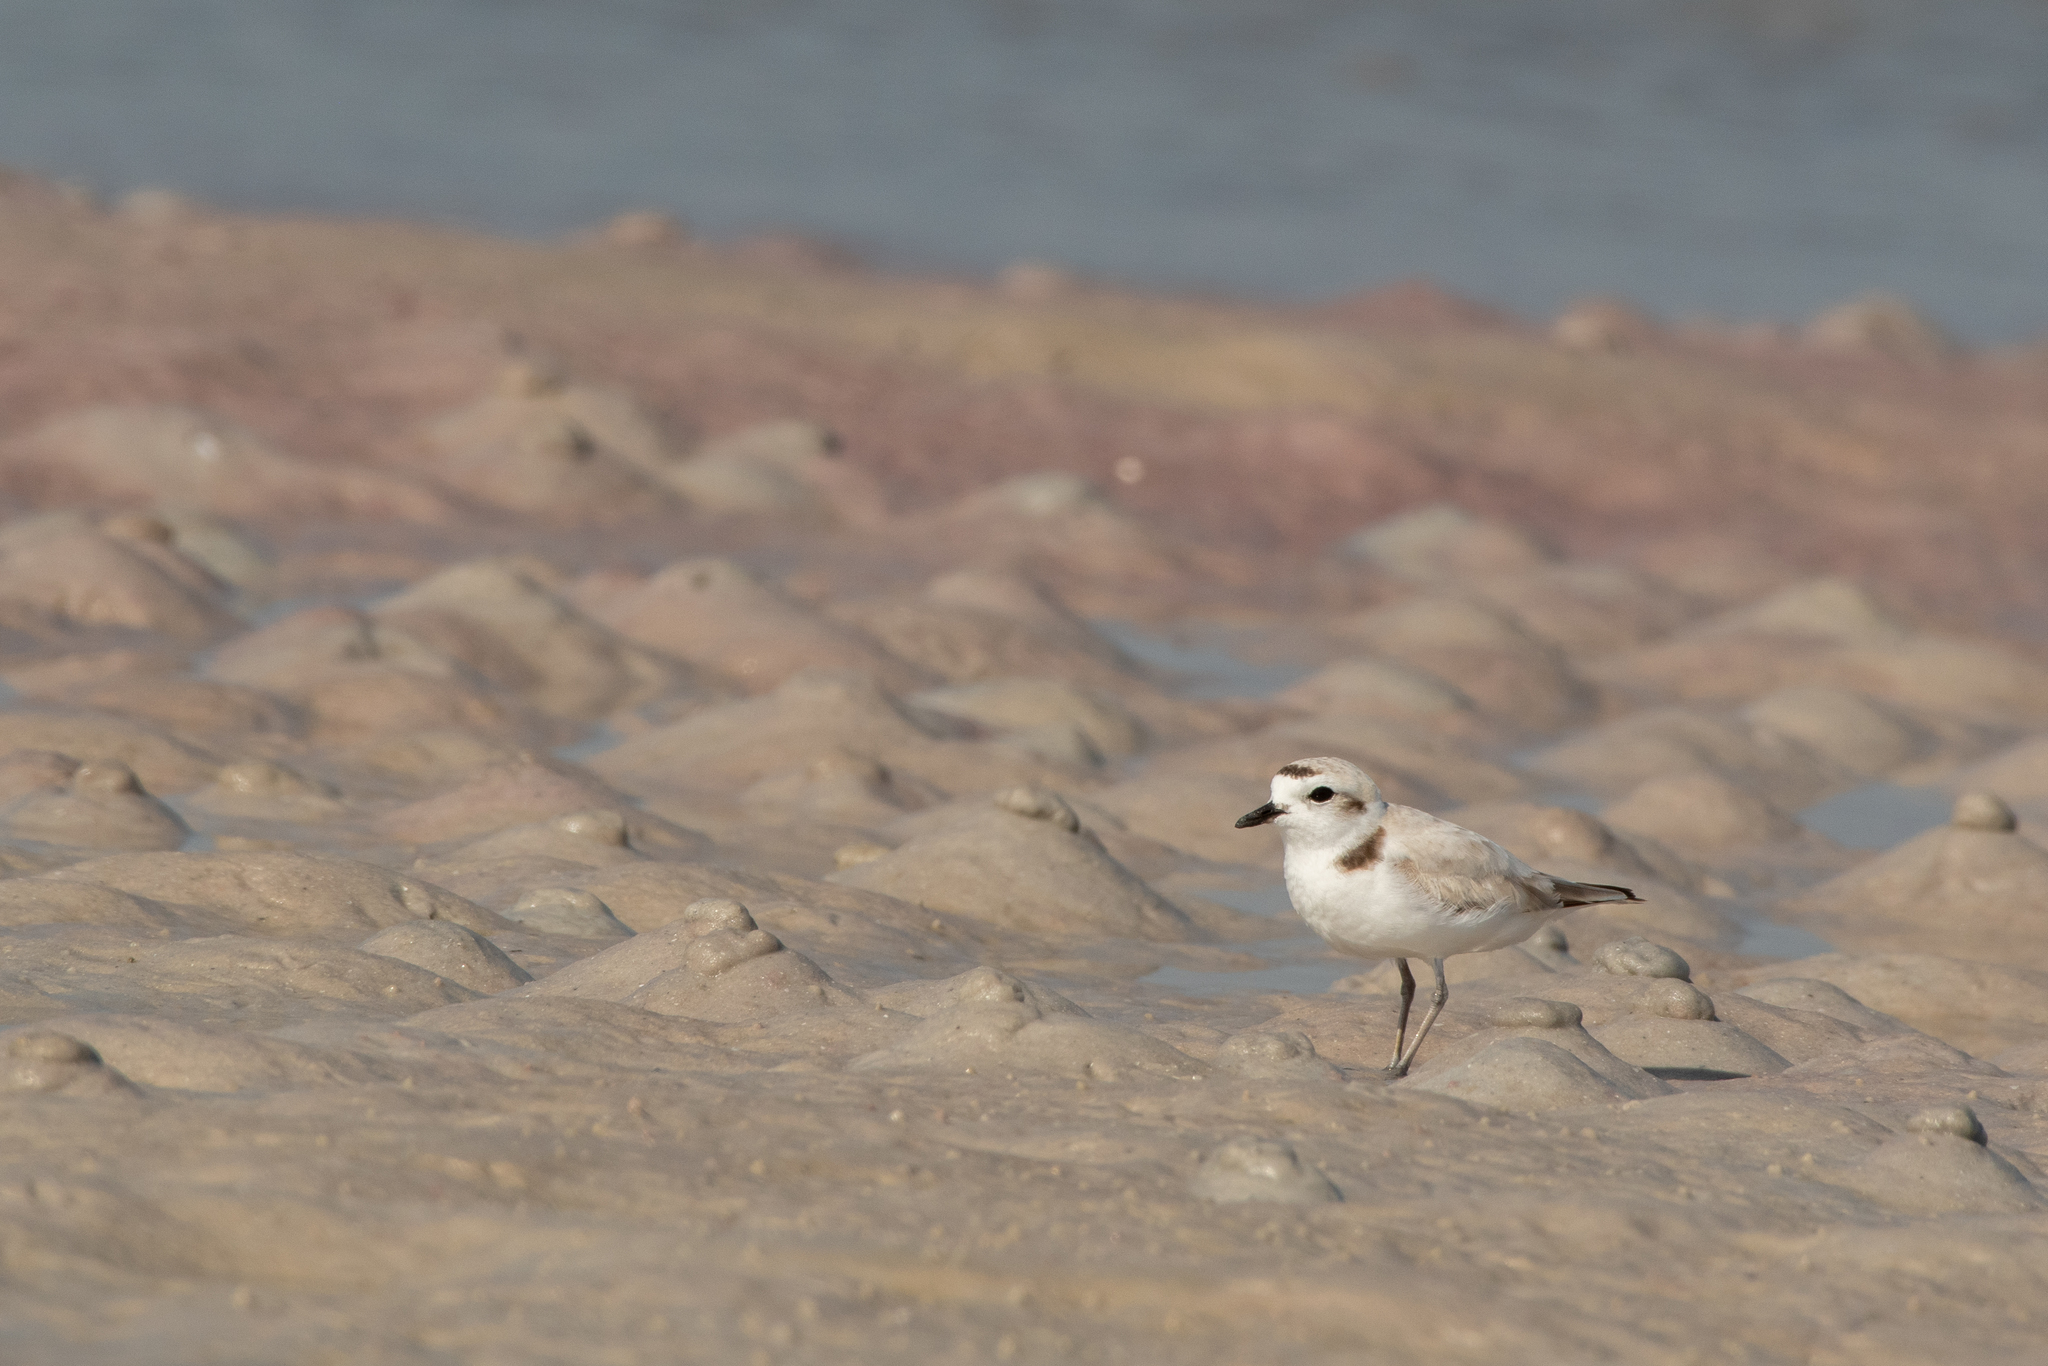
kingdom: Animalia
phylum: Chordata
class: Aves
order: Charadriiformes
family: Charadriidae
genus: Charadrius
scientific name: Charadrius melodus
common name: Piping plover
